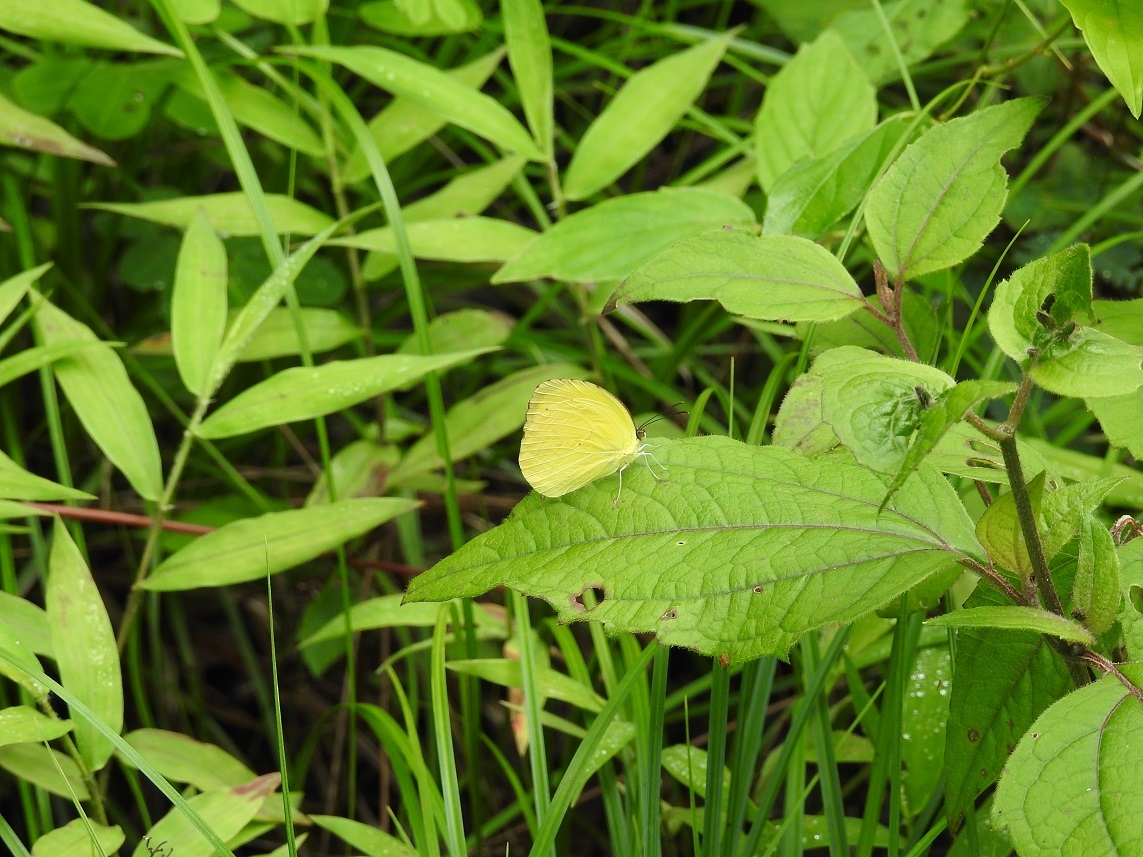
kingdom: Animalia
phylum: Arthropoda
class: Insecta
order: Lepidoptera
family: Pieridae
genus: Pyrisitia
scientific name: Pyrisitia dina
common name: Dina yellow
